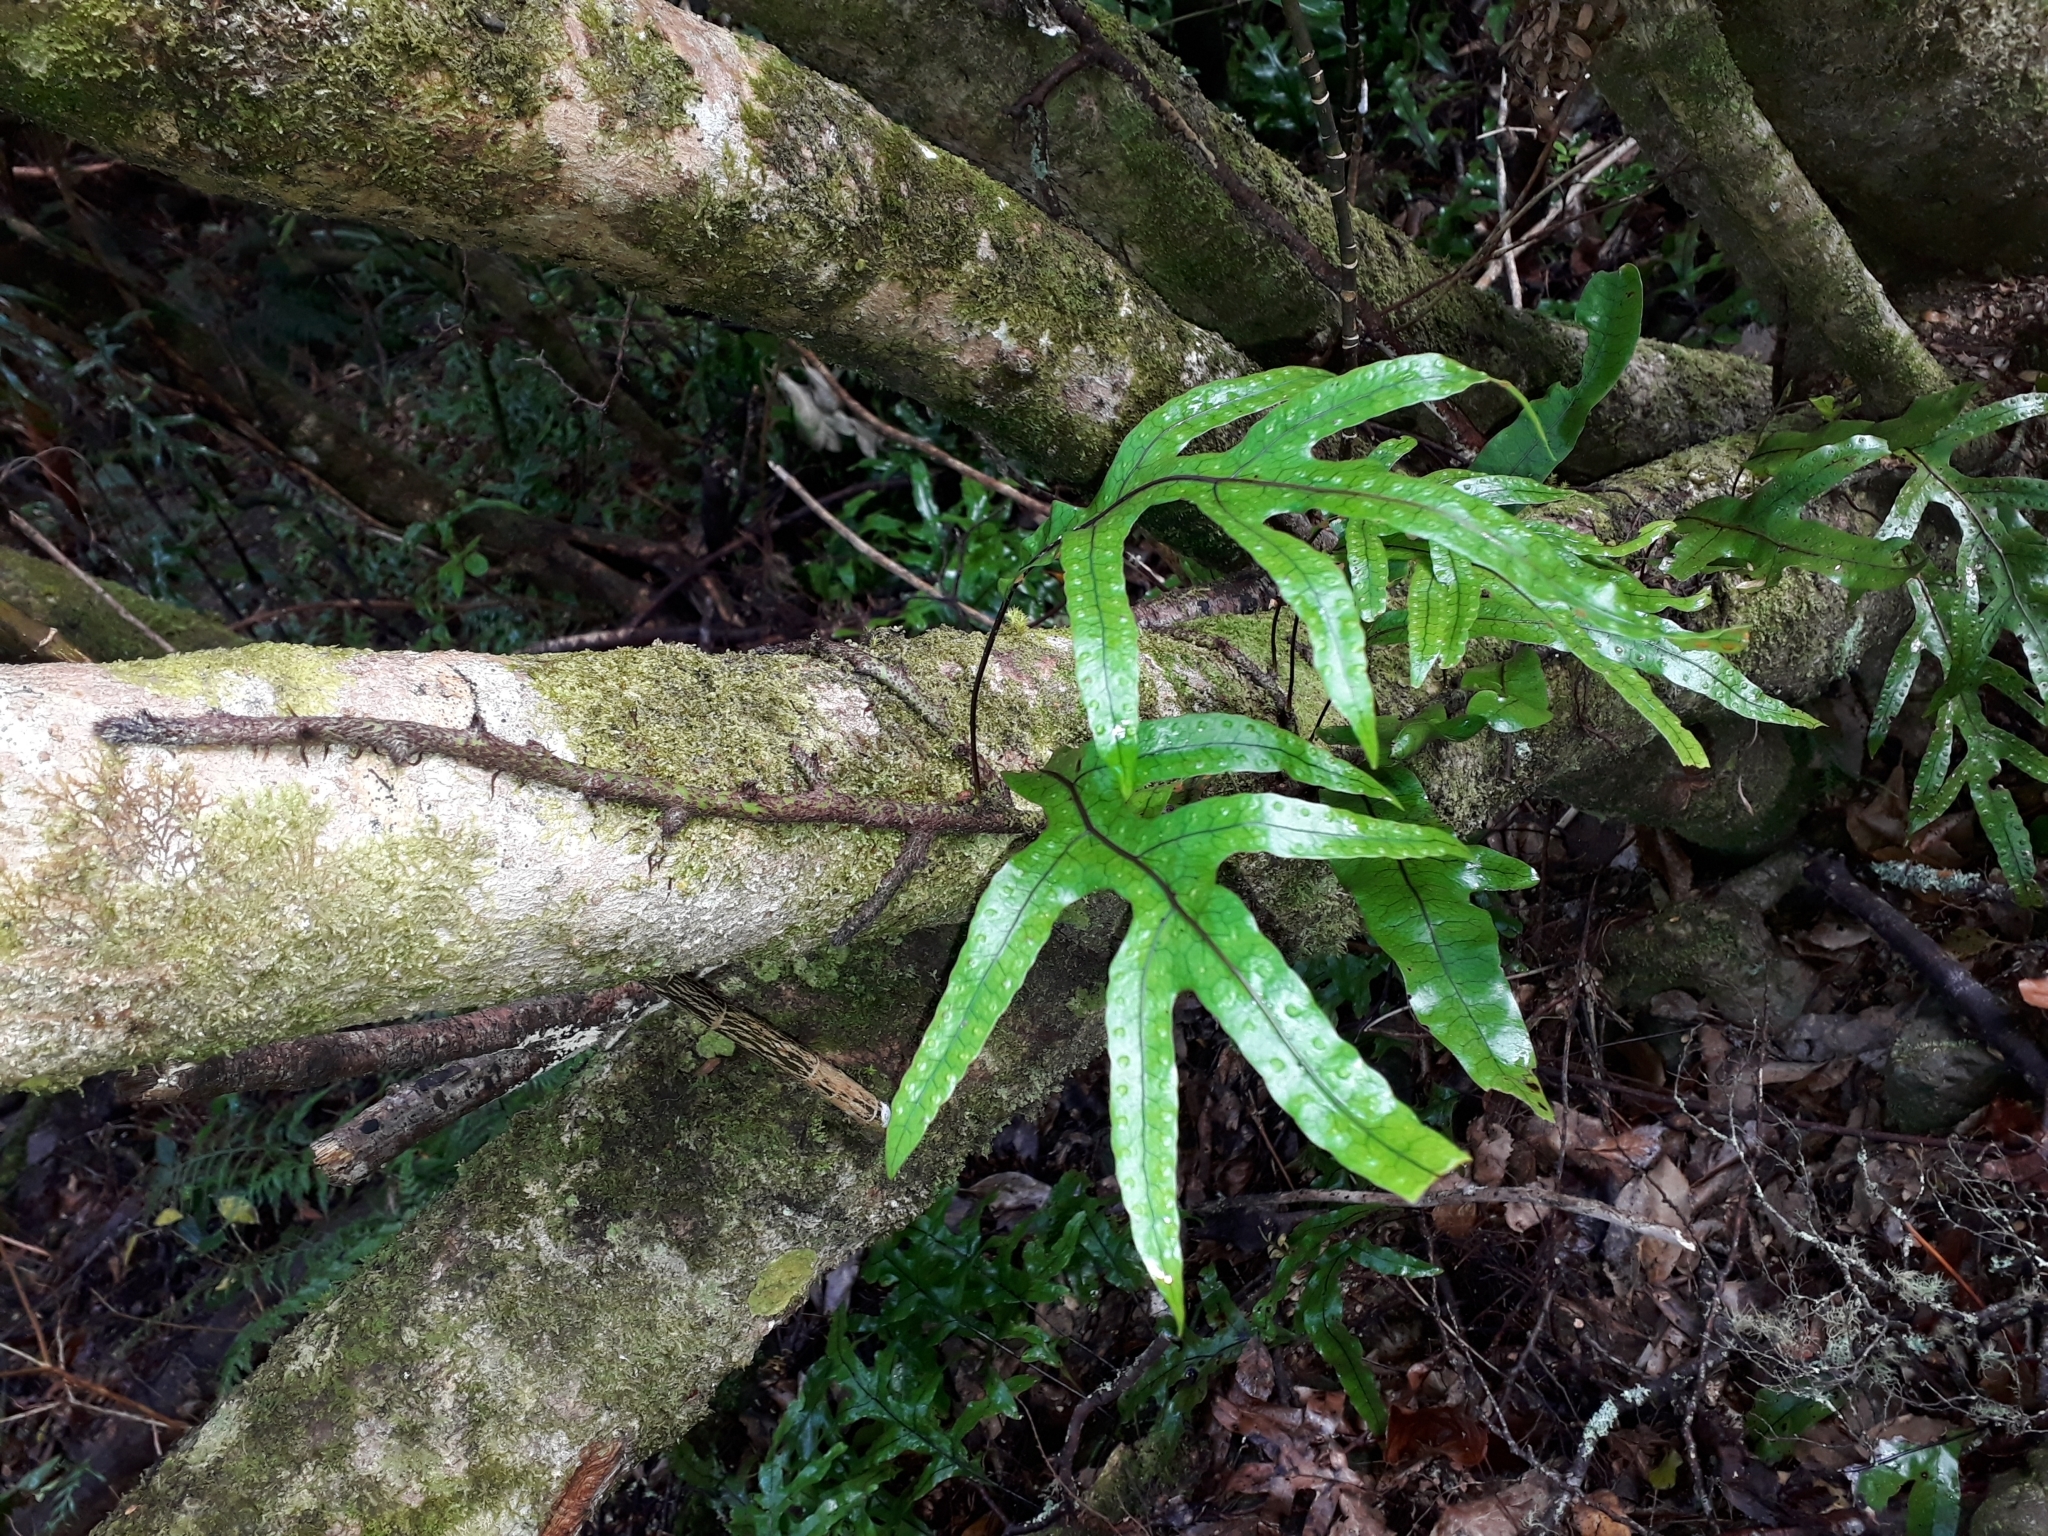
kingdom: Plantae
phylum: Tracheophyta
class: Polypodiopsida
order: Polypodiales
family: Polypodiaceae
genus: Lecanopteris
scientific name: Lecanopteris pustulata
